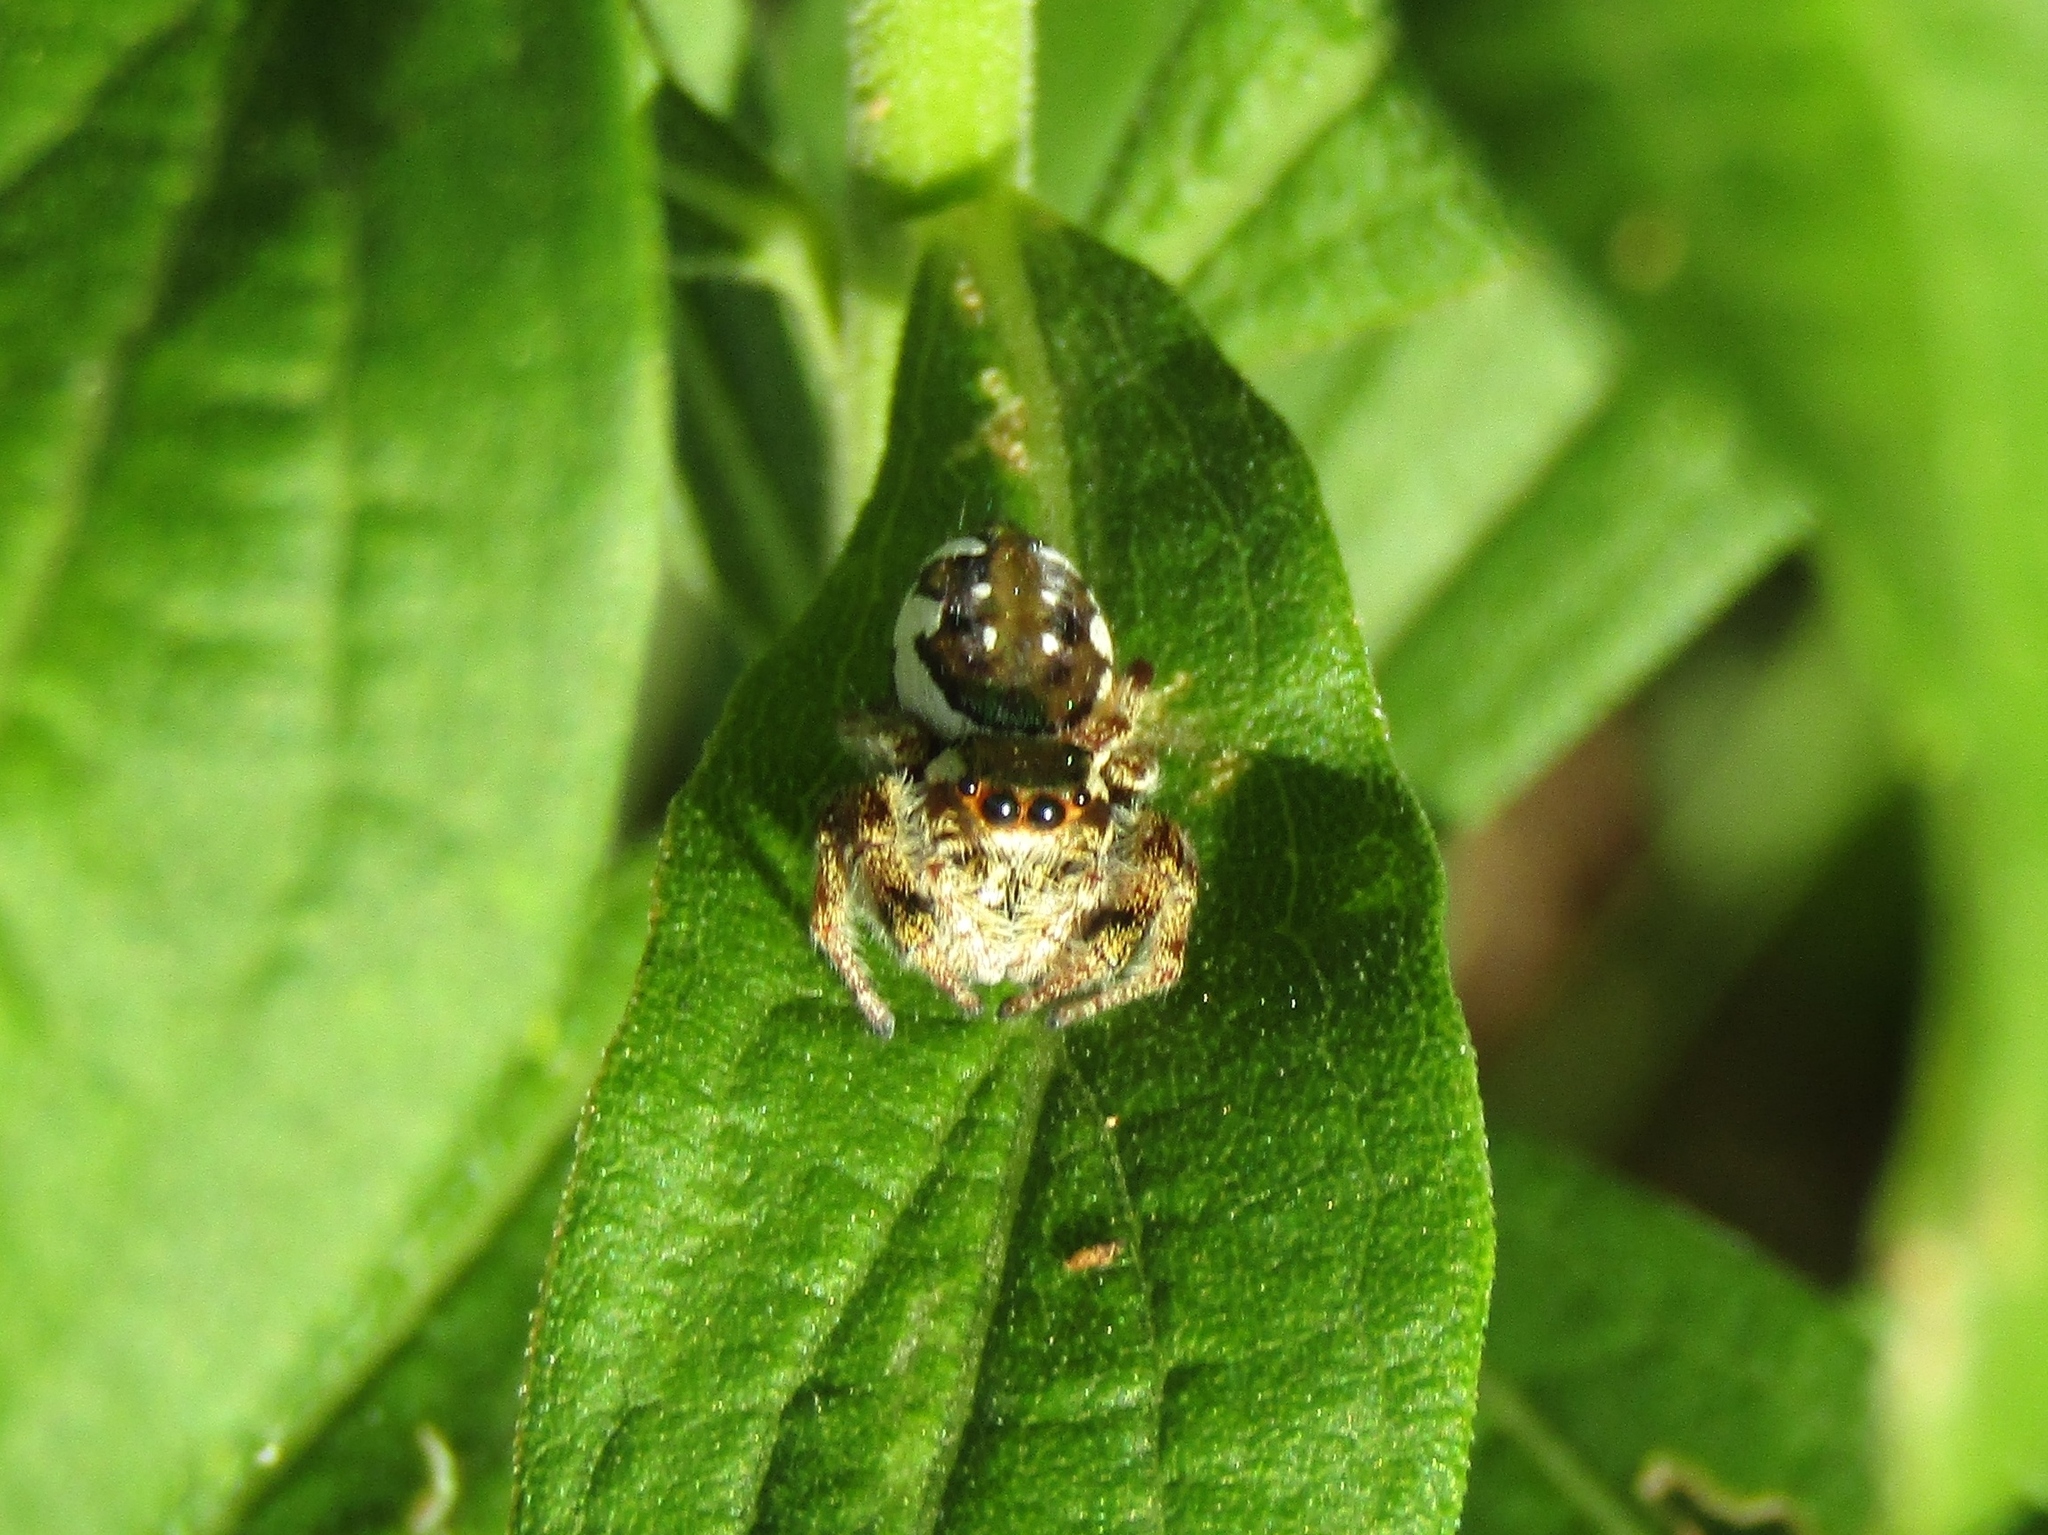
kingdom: Animalia
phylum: Arthropoda
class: Arachnida
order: Araneae
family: Salticidae
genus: Paraphidippus
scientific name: Paraphidippus aurantius
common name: Jumping spiders
